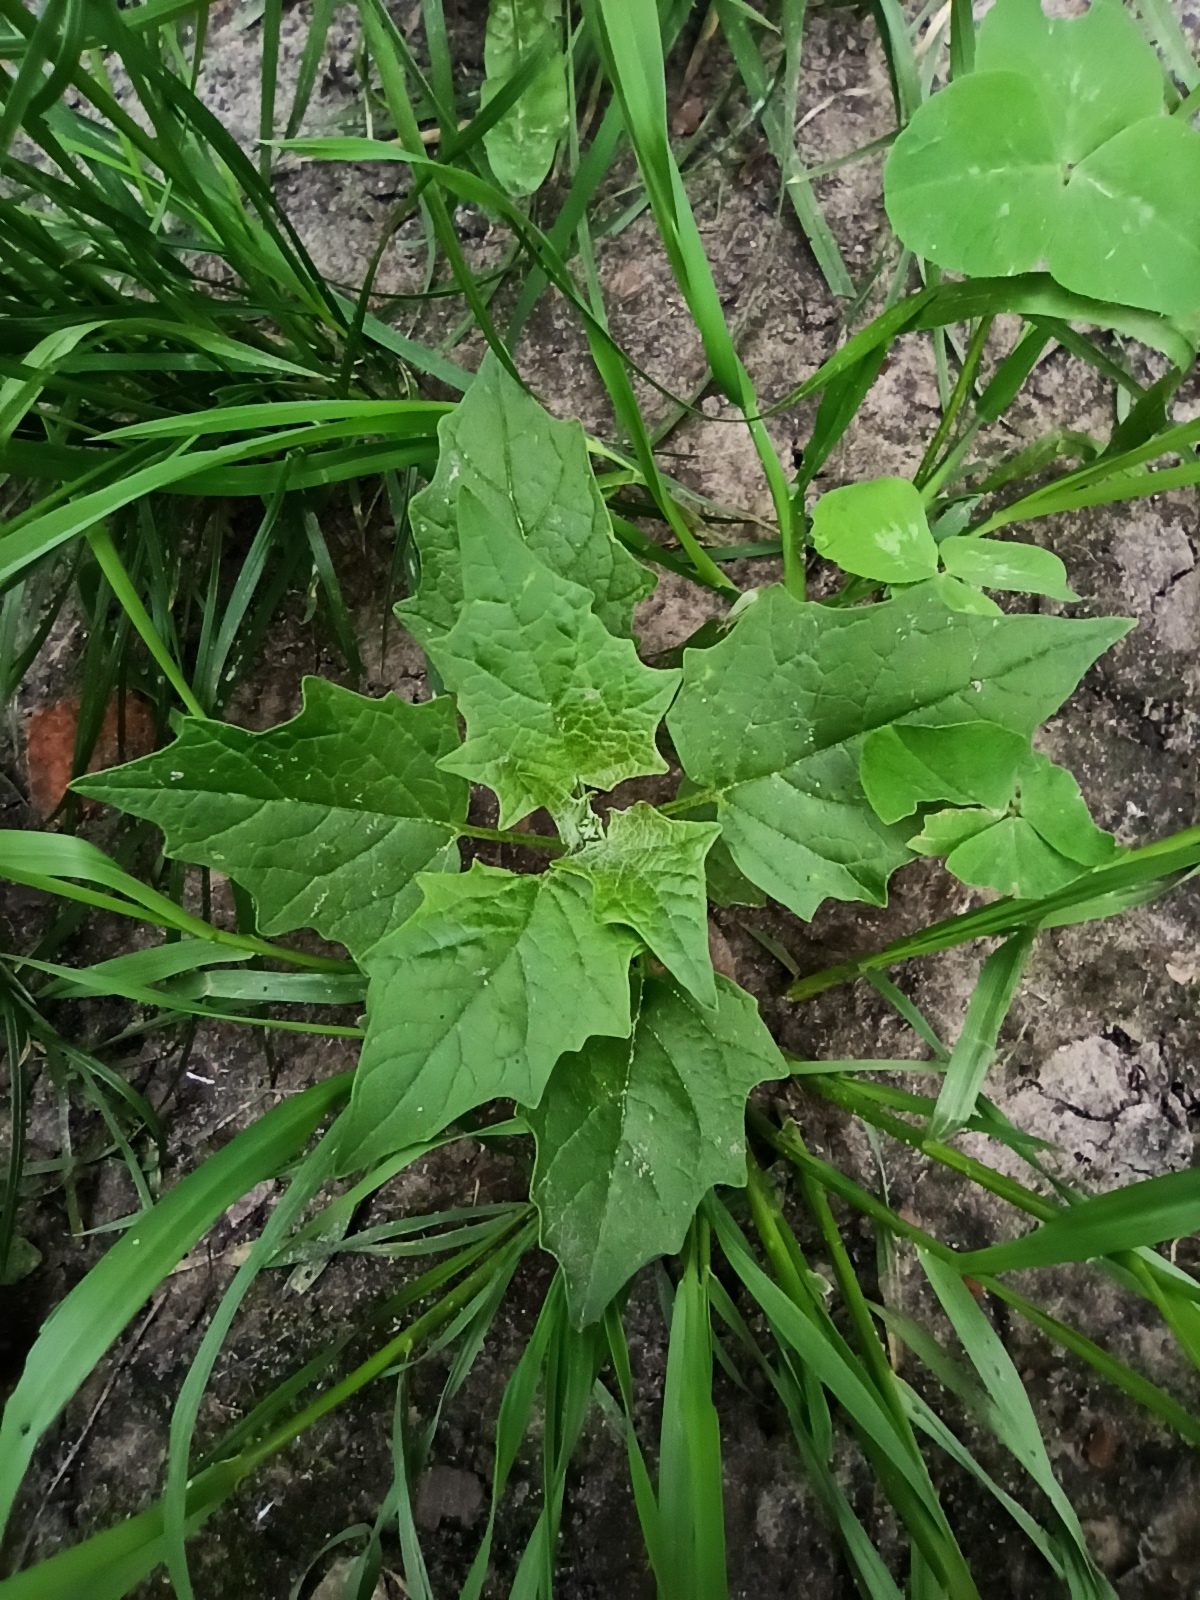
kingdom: Plantae
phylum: Tracheophyta
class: Magnoliopsida
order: Caryophyllales
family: Amaranthaceae
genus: Chenopodiastrum
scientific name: Chenopodiastrum hybridum
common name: Mapleleaf goosefoot
